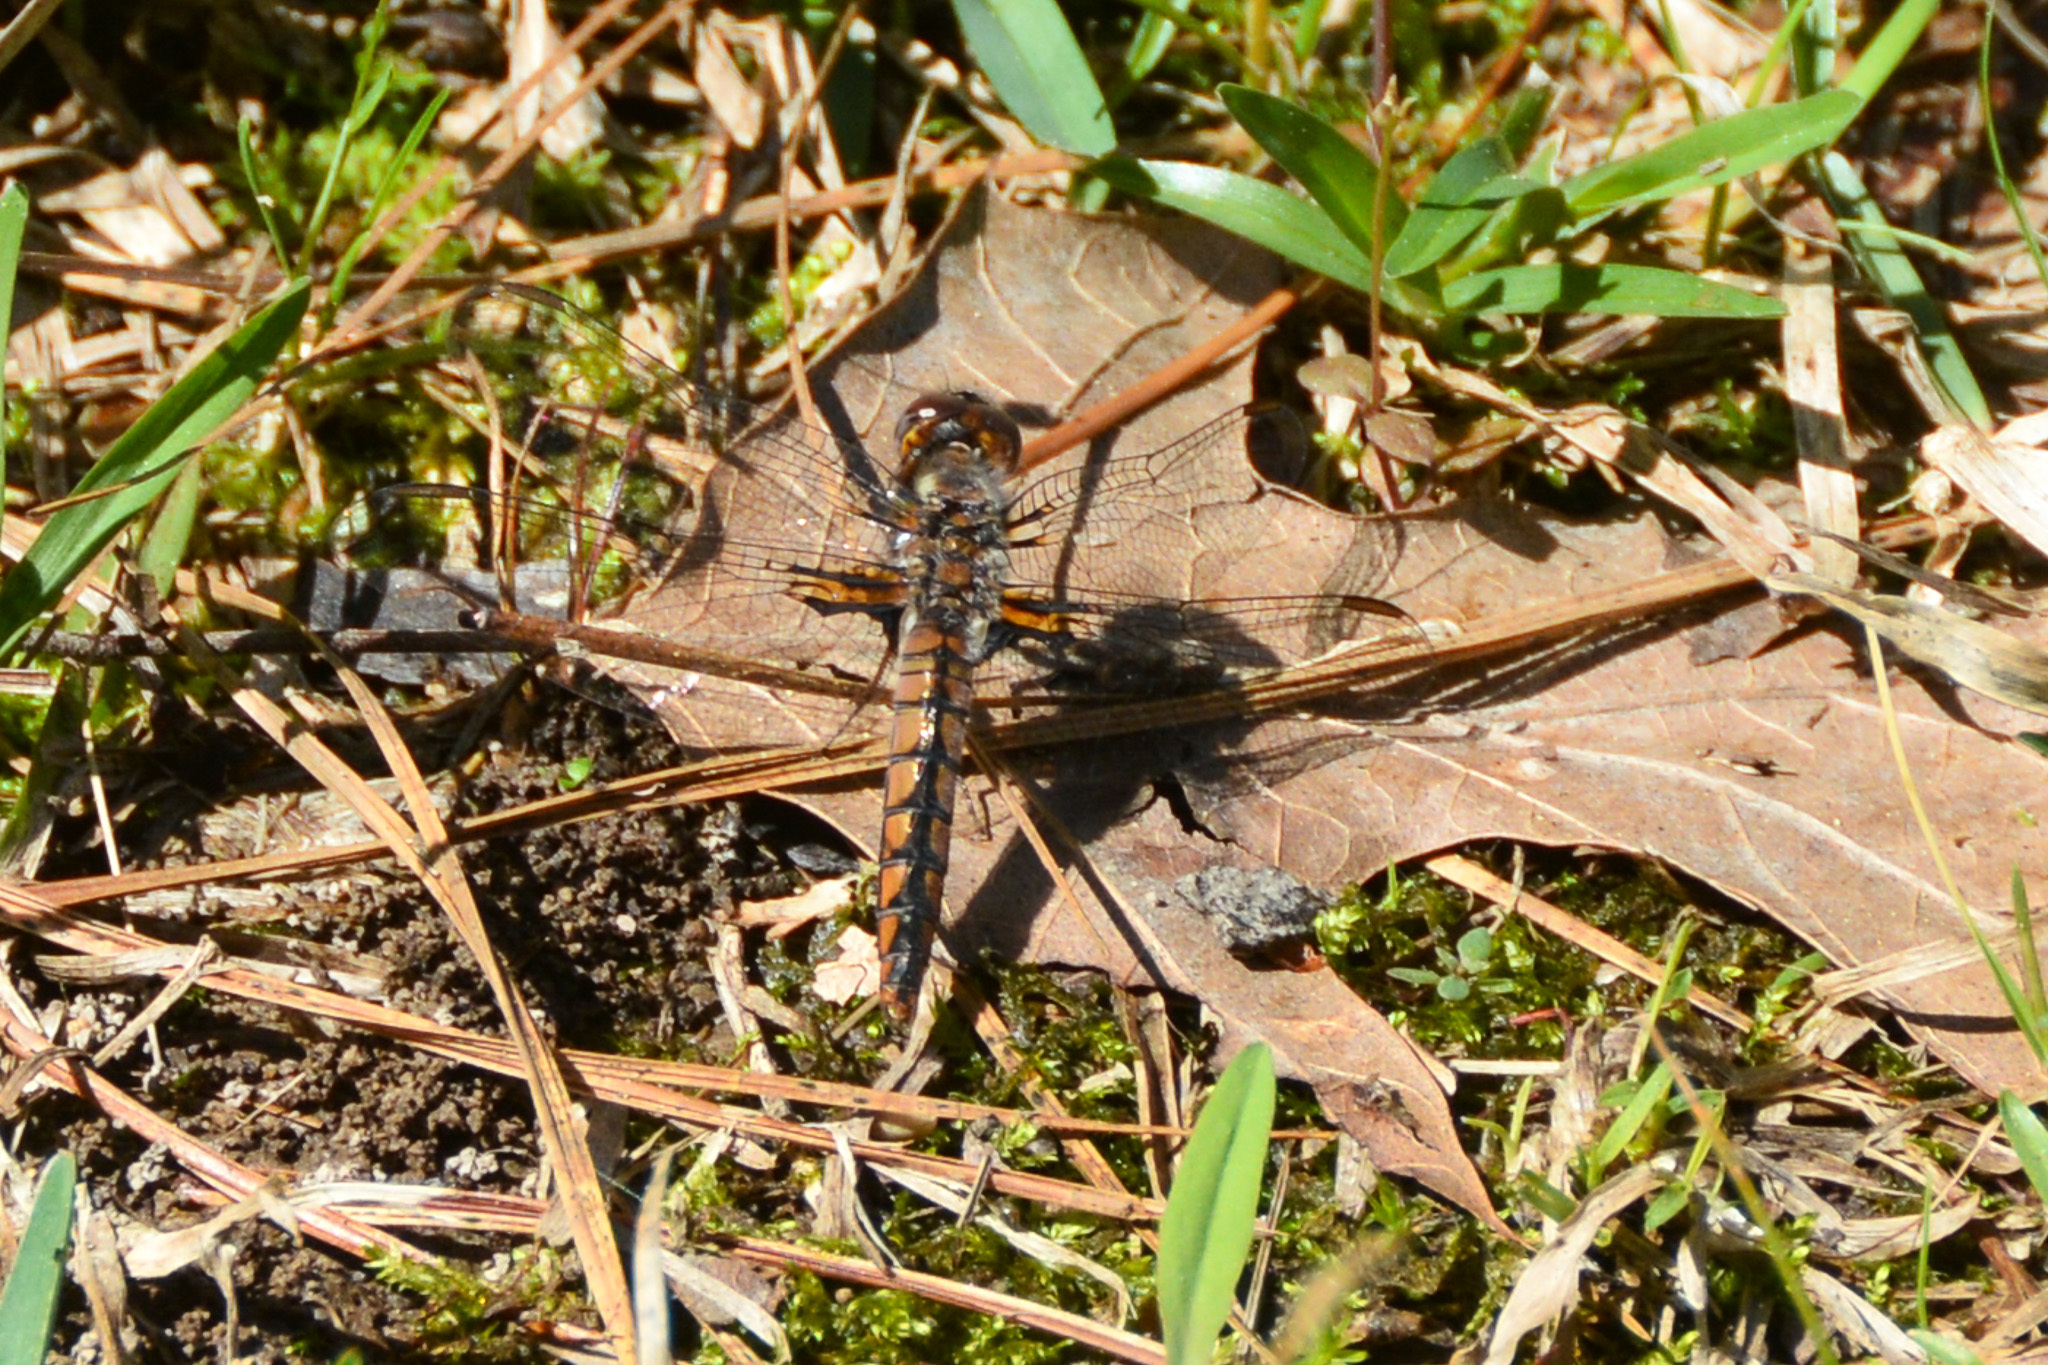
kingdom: Animalia
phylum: Arthropoda
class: Insecta
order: Odonata
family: Libellulidae
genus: Ladona
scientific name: Ladona deplanata
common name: Blue corporal
